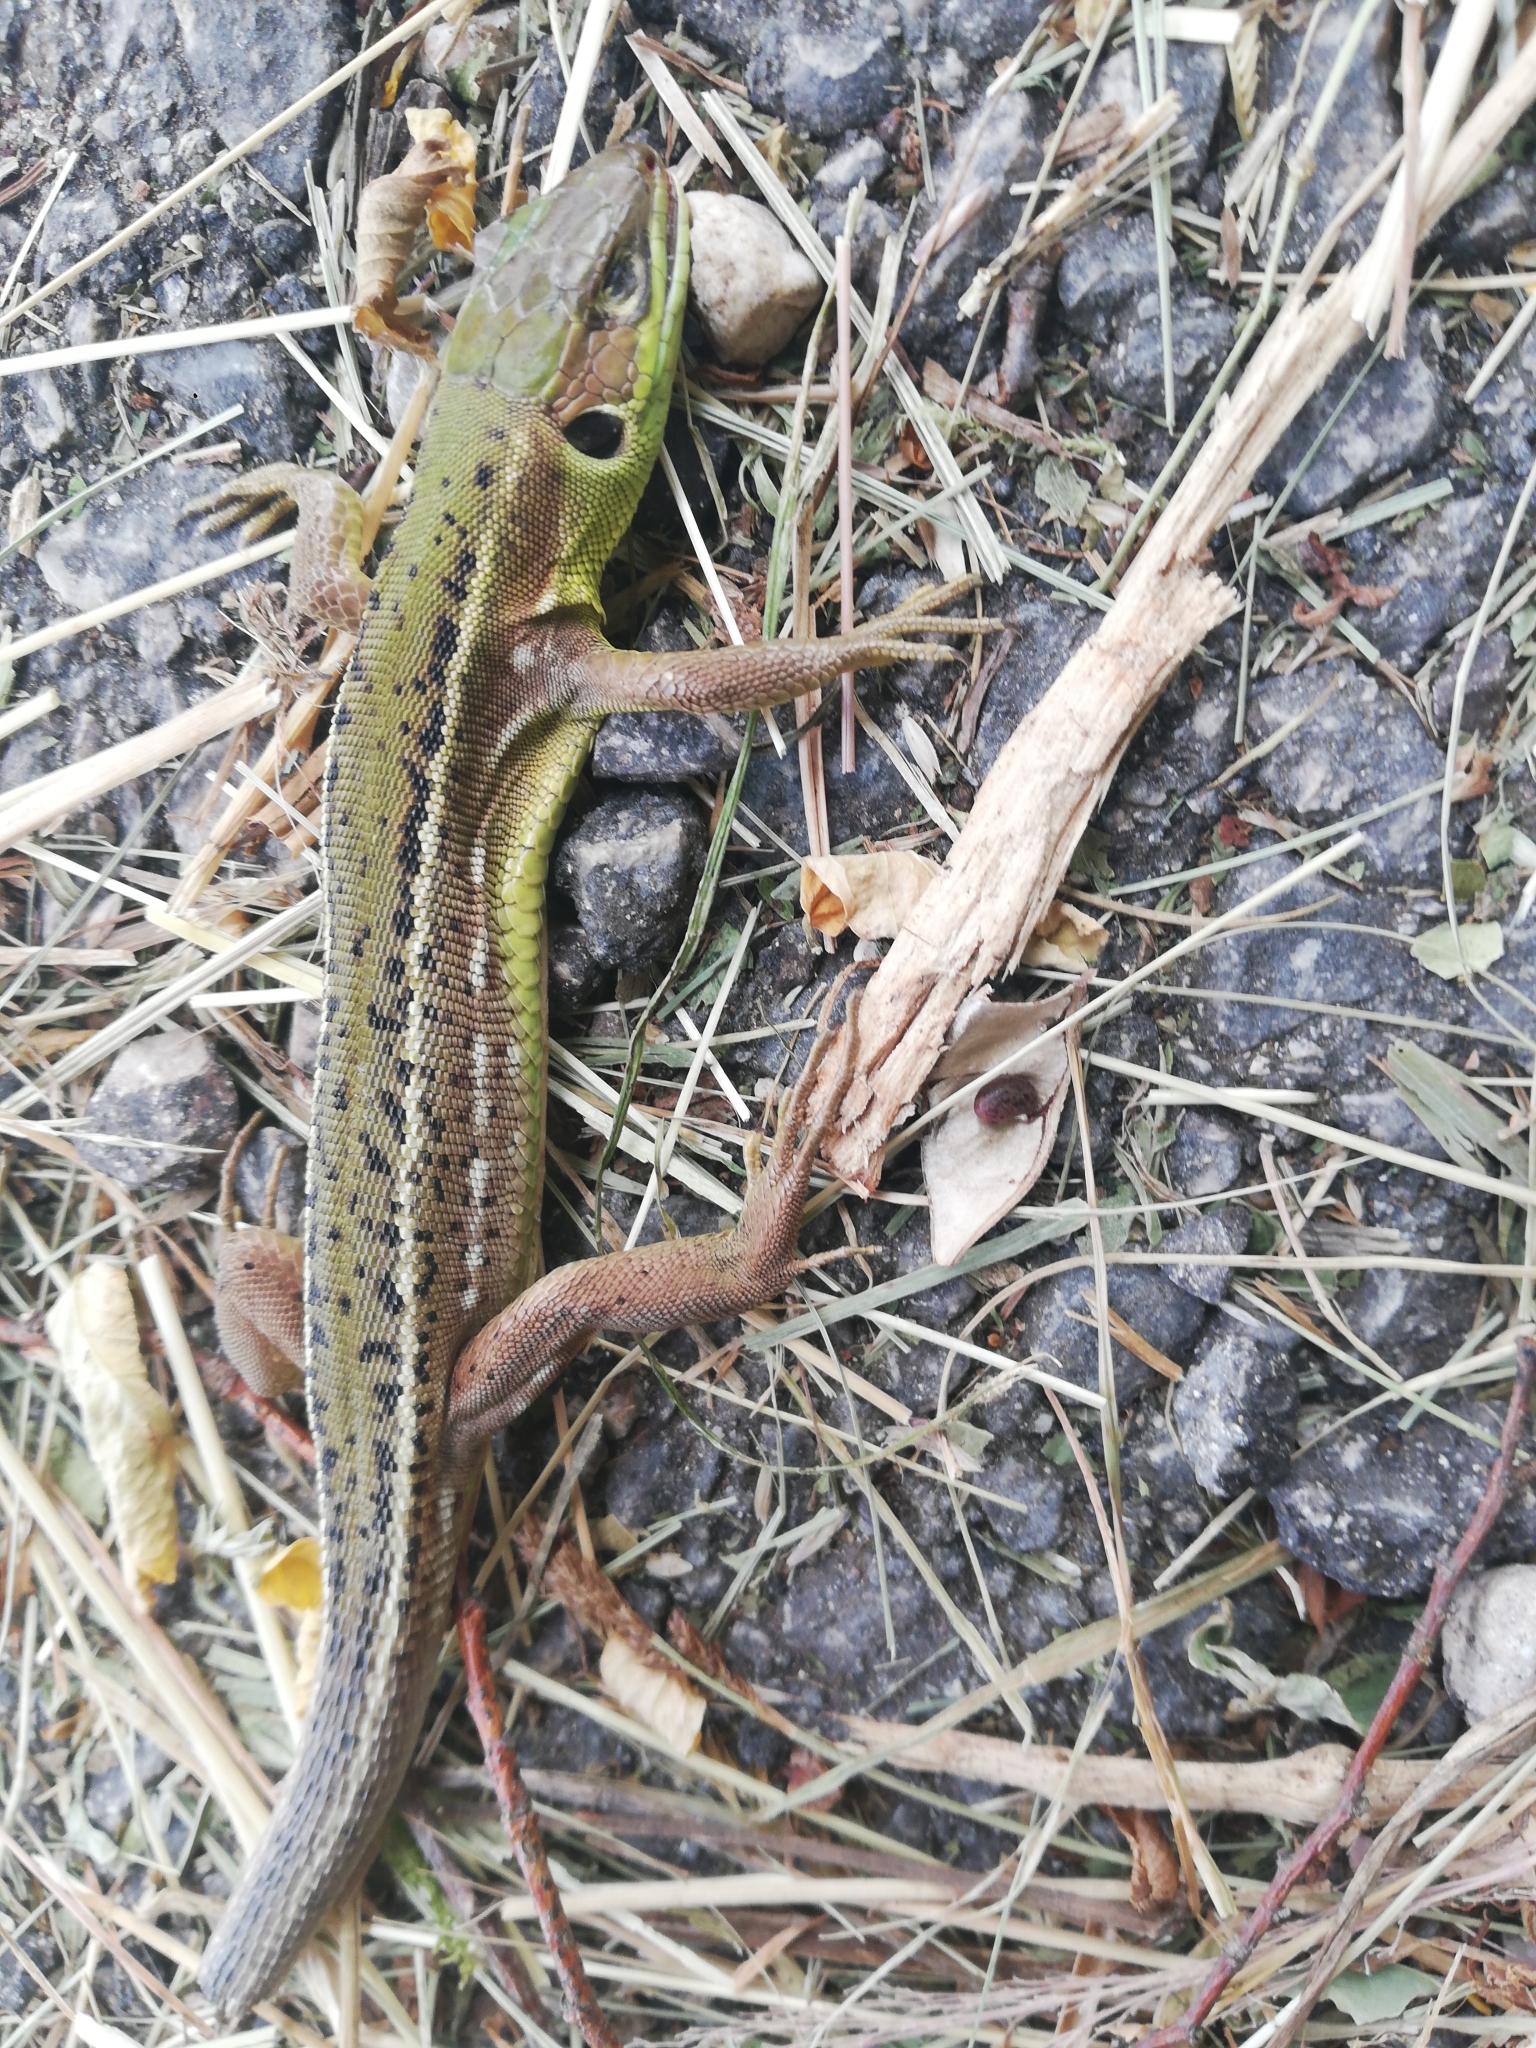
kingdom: Animalia
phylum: Chordata
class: Squamata
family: Lacertidae
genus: Lacerta
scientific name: Lacerta bilineata
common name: Western green lizard
